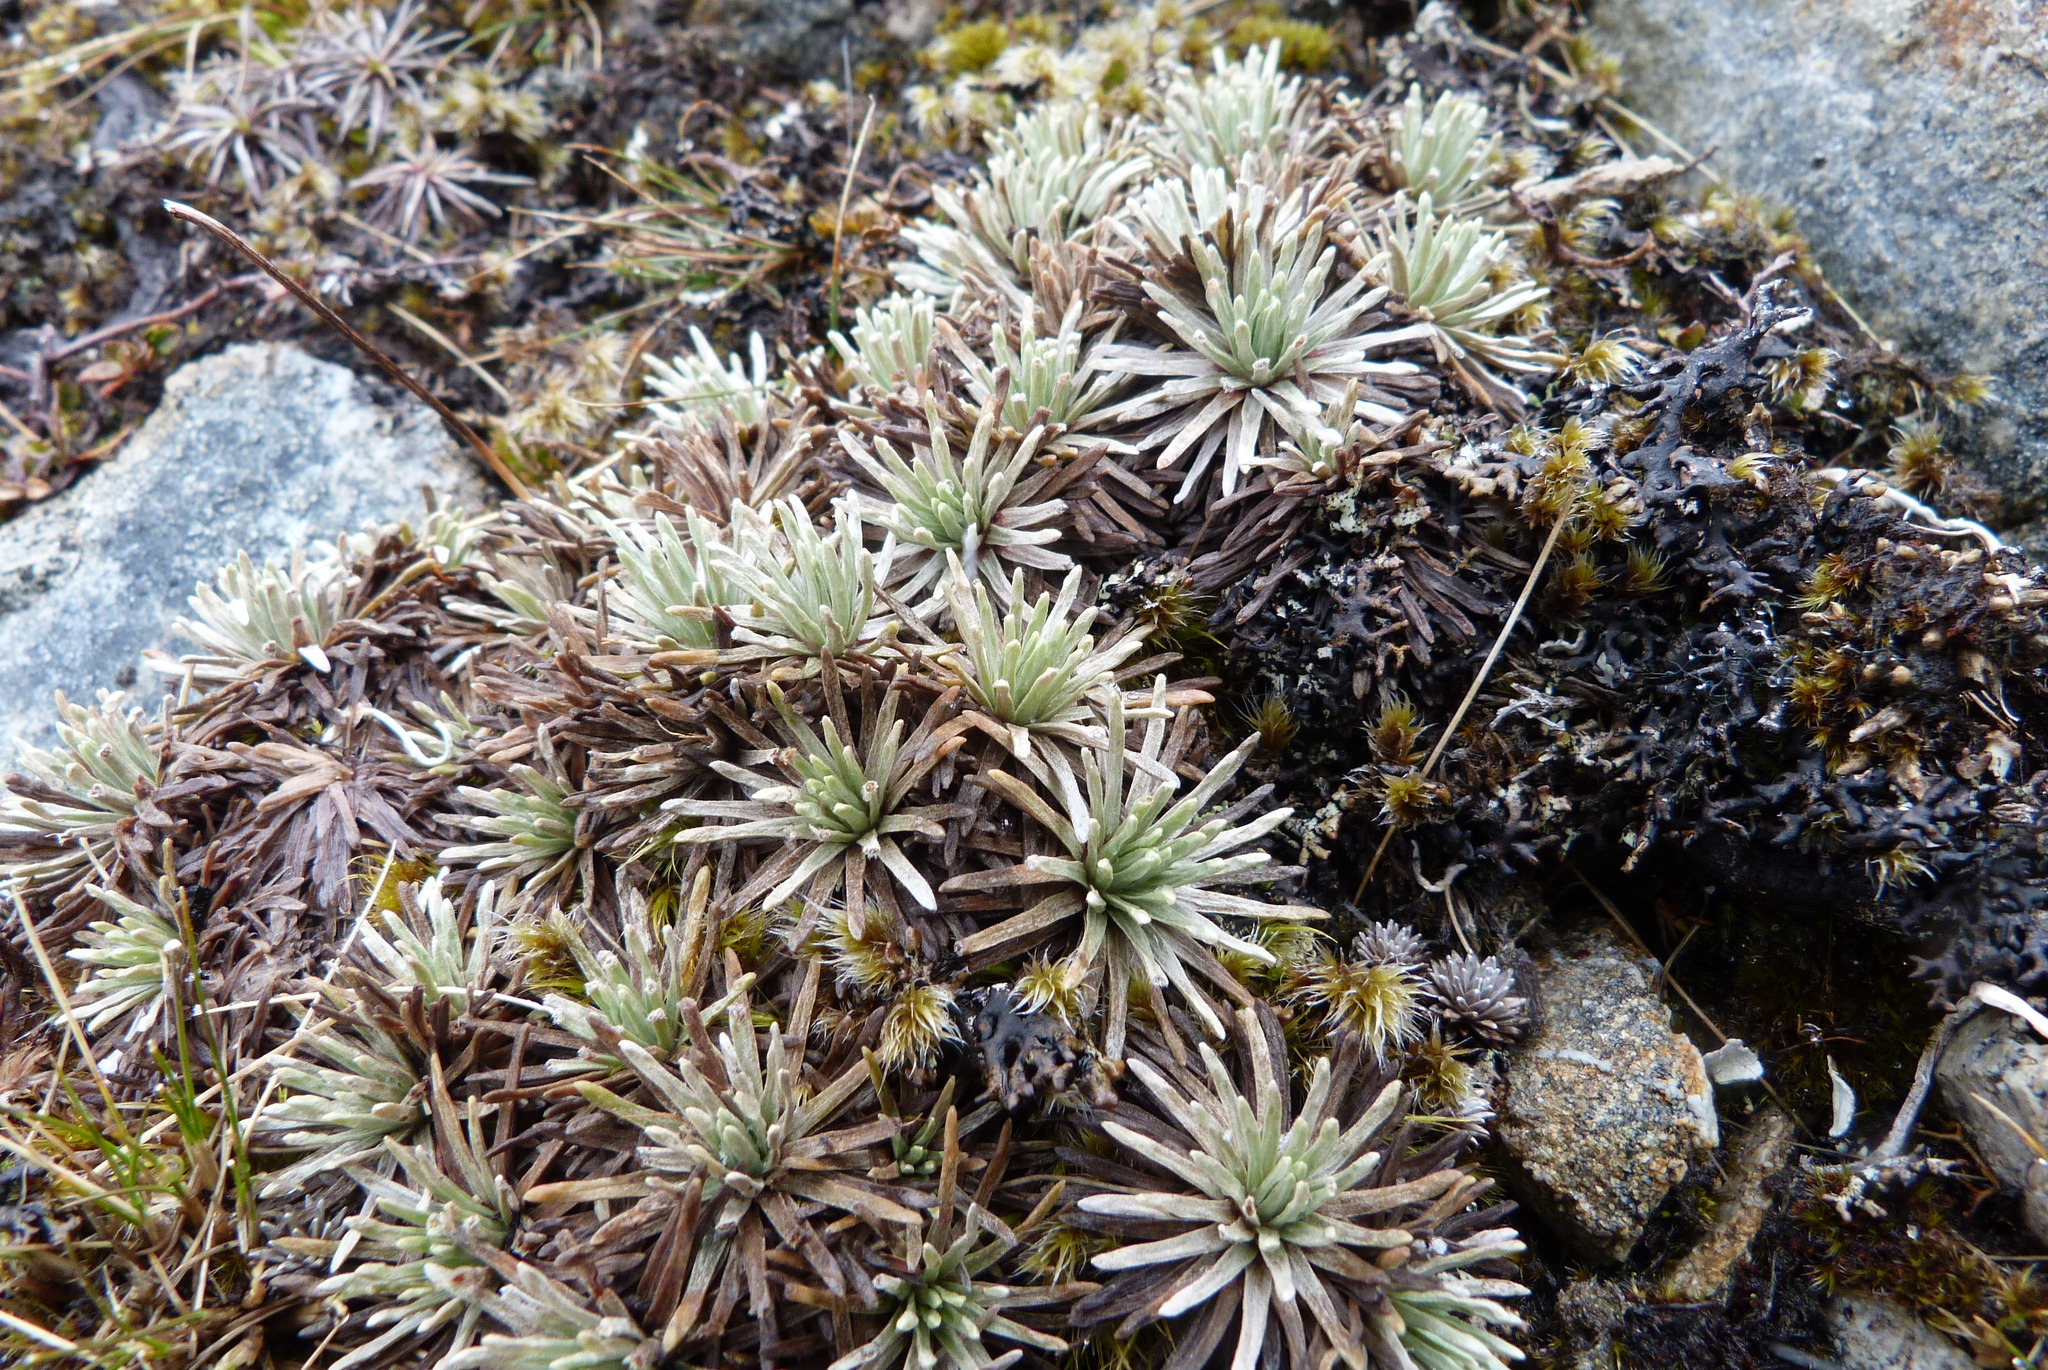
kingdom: Plantae
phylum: Tracheophyta
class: Magnoliopsida
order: Asterales
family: Asteraceae
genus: Celmisia
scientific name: Celmisia sessiliflora
